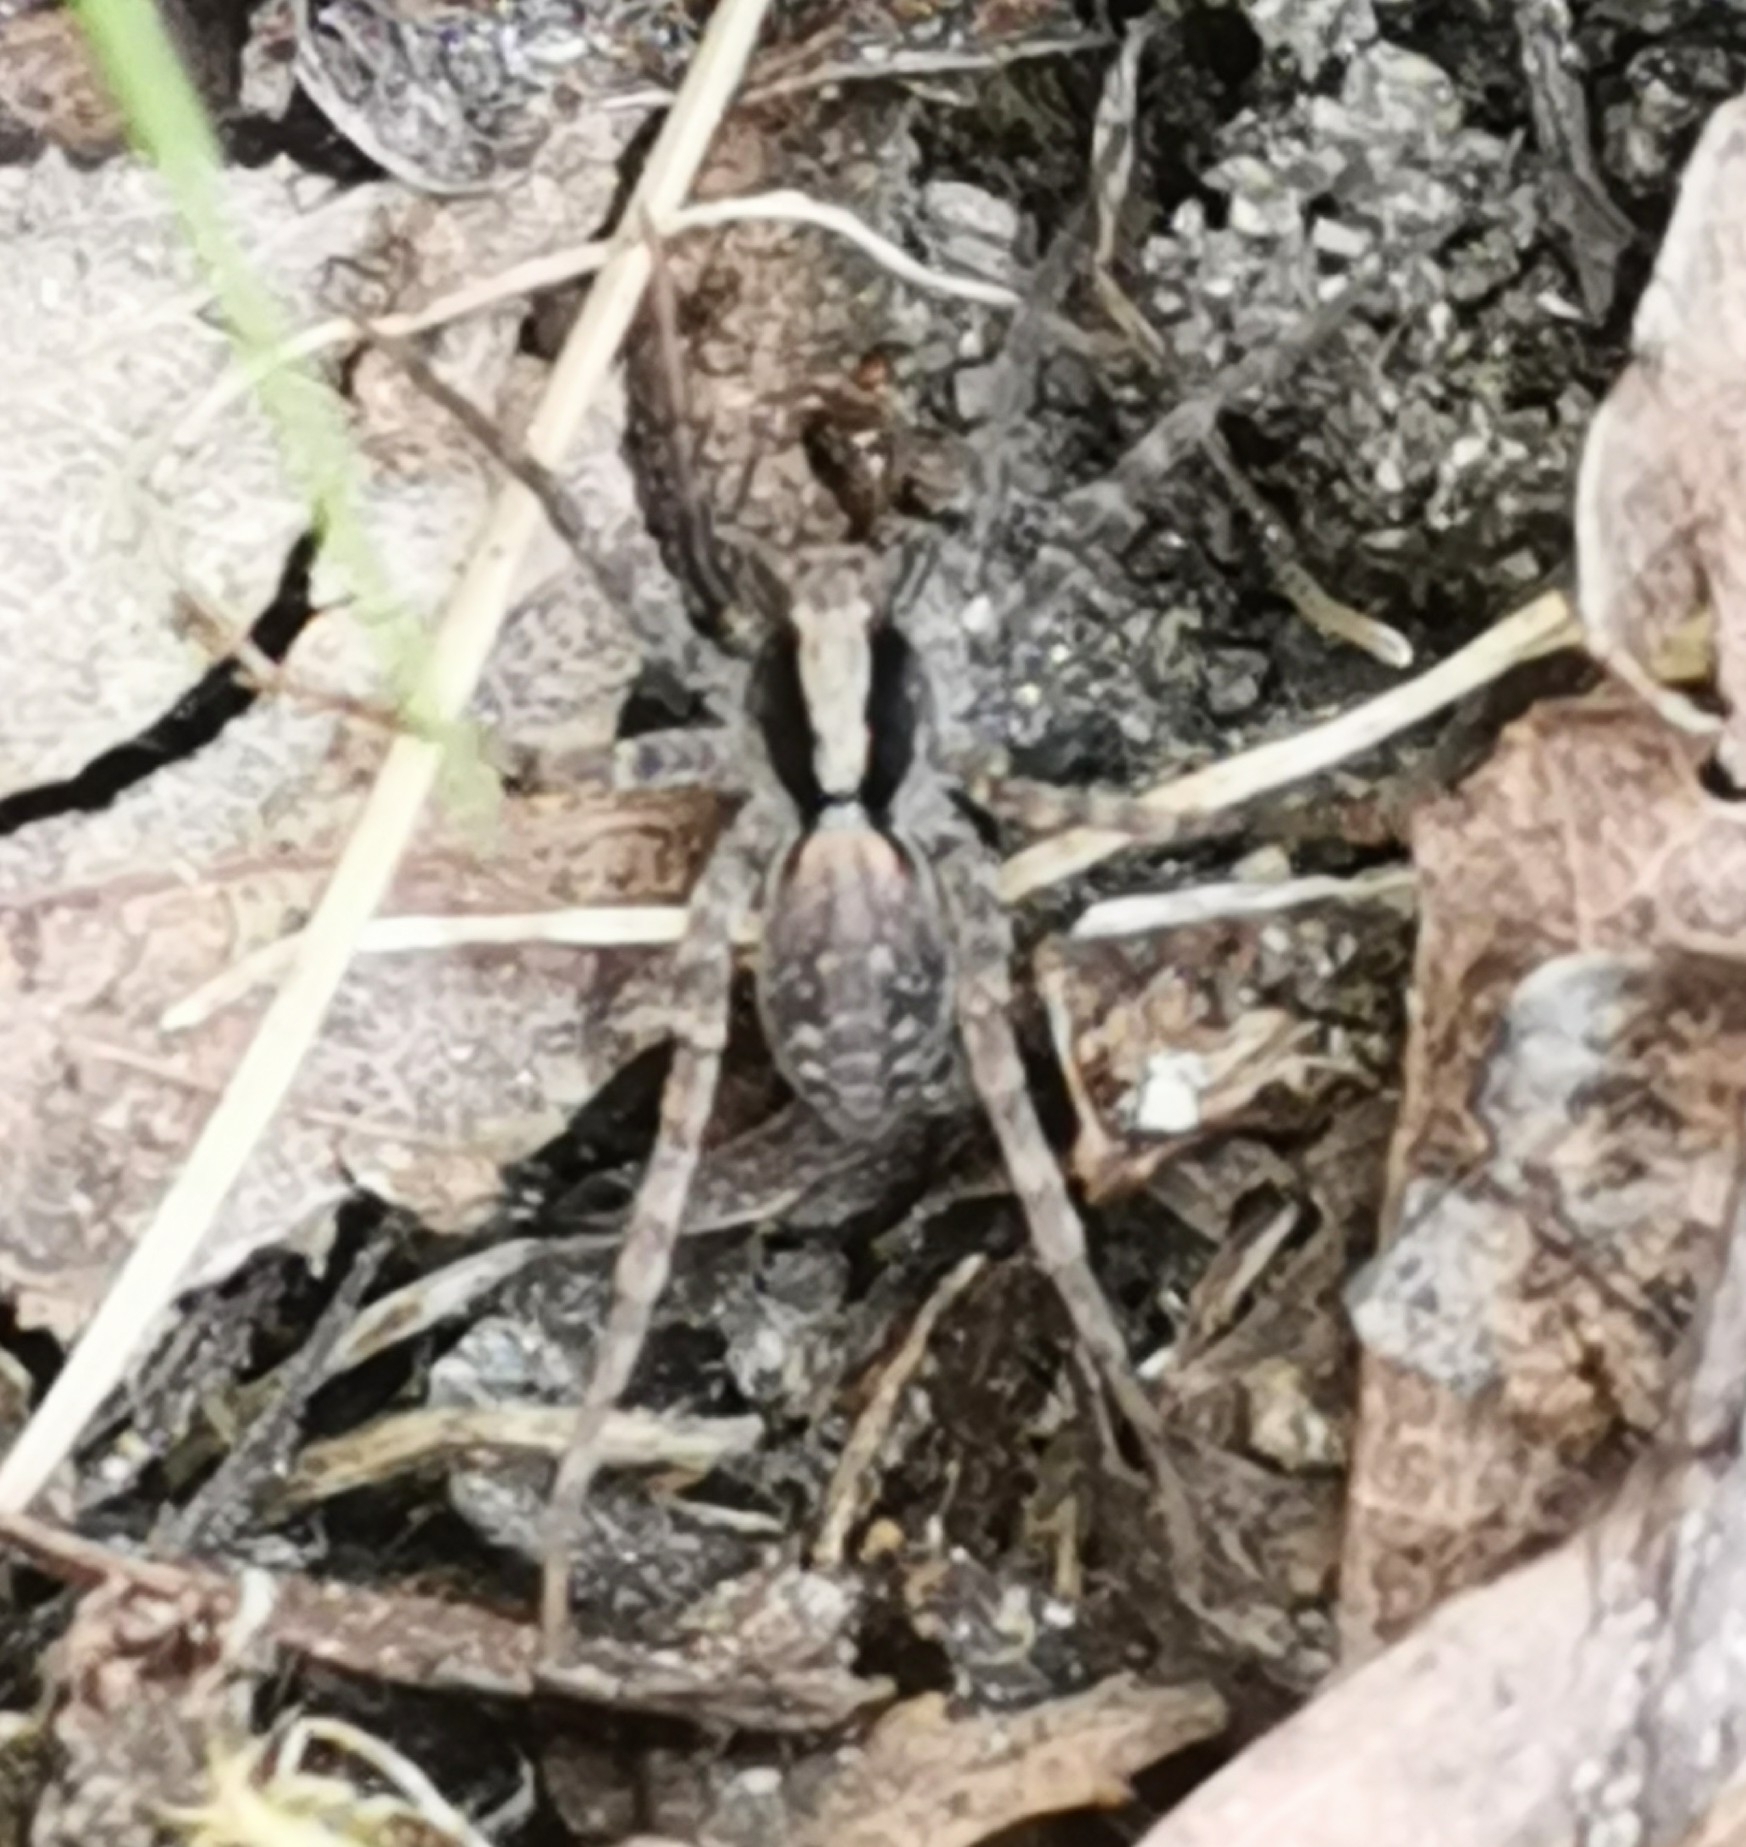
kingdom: Animalia
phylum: Arthropoda
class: Arachnida
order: Araneae
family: Lycosidae
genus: Xerolycosa
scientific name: Xerolycosa nemoralis
